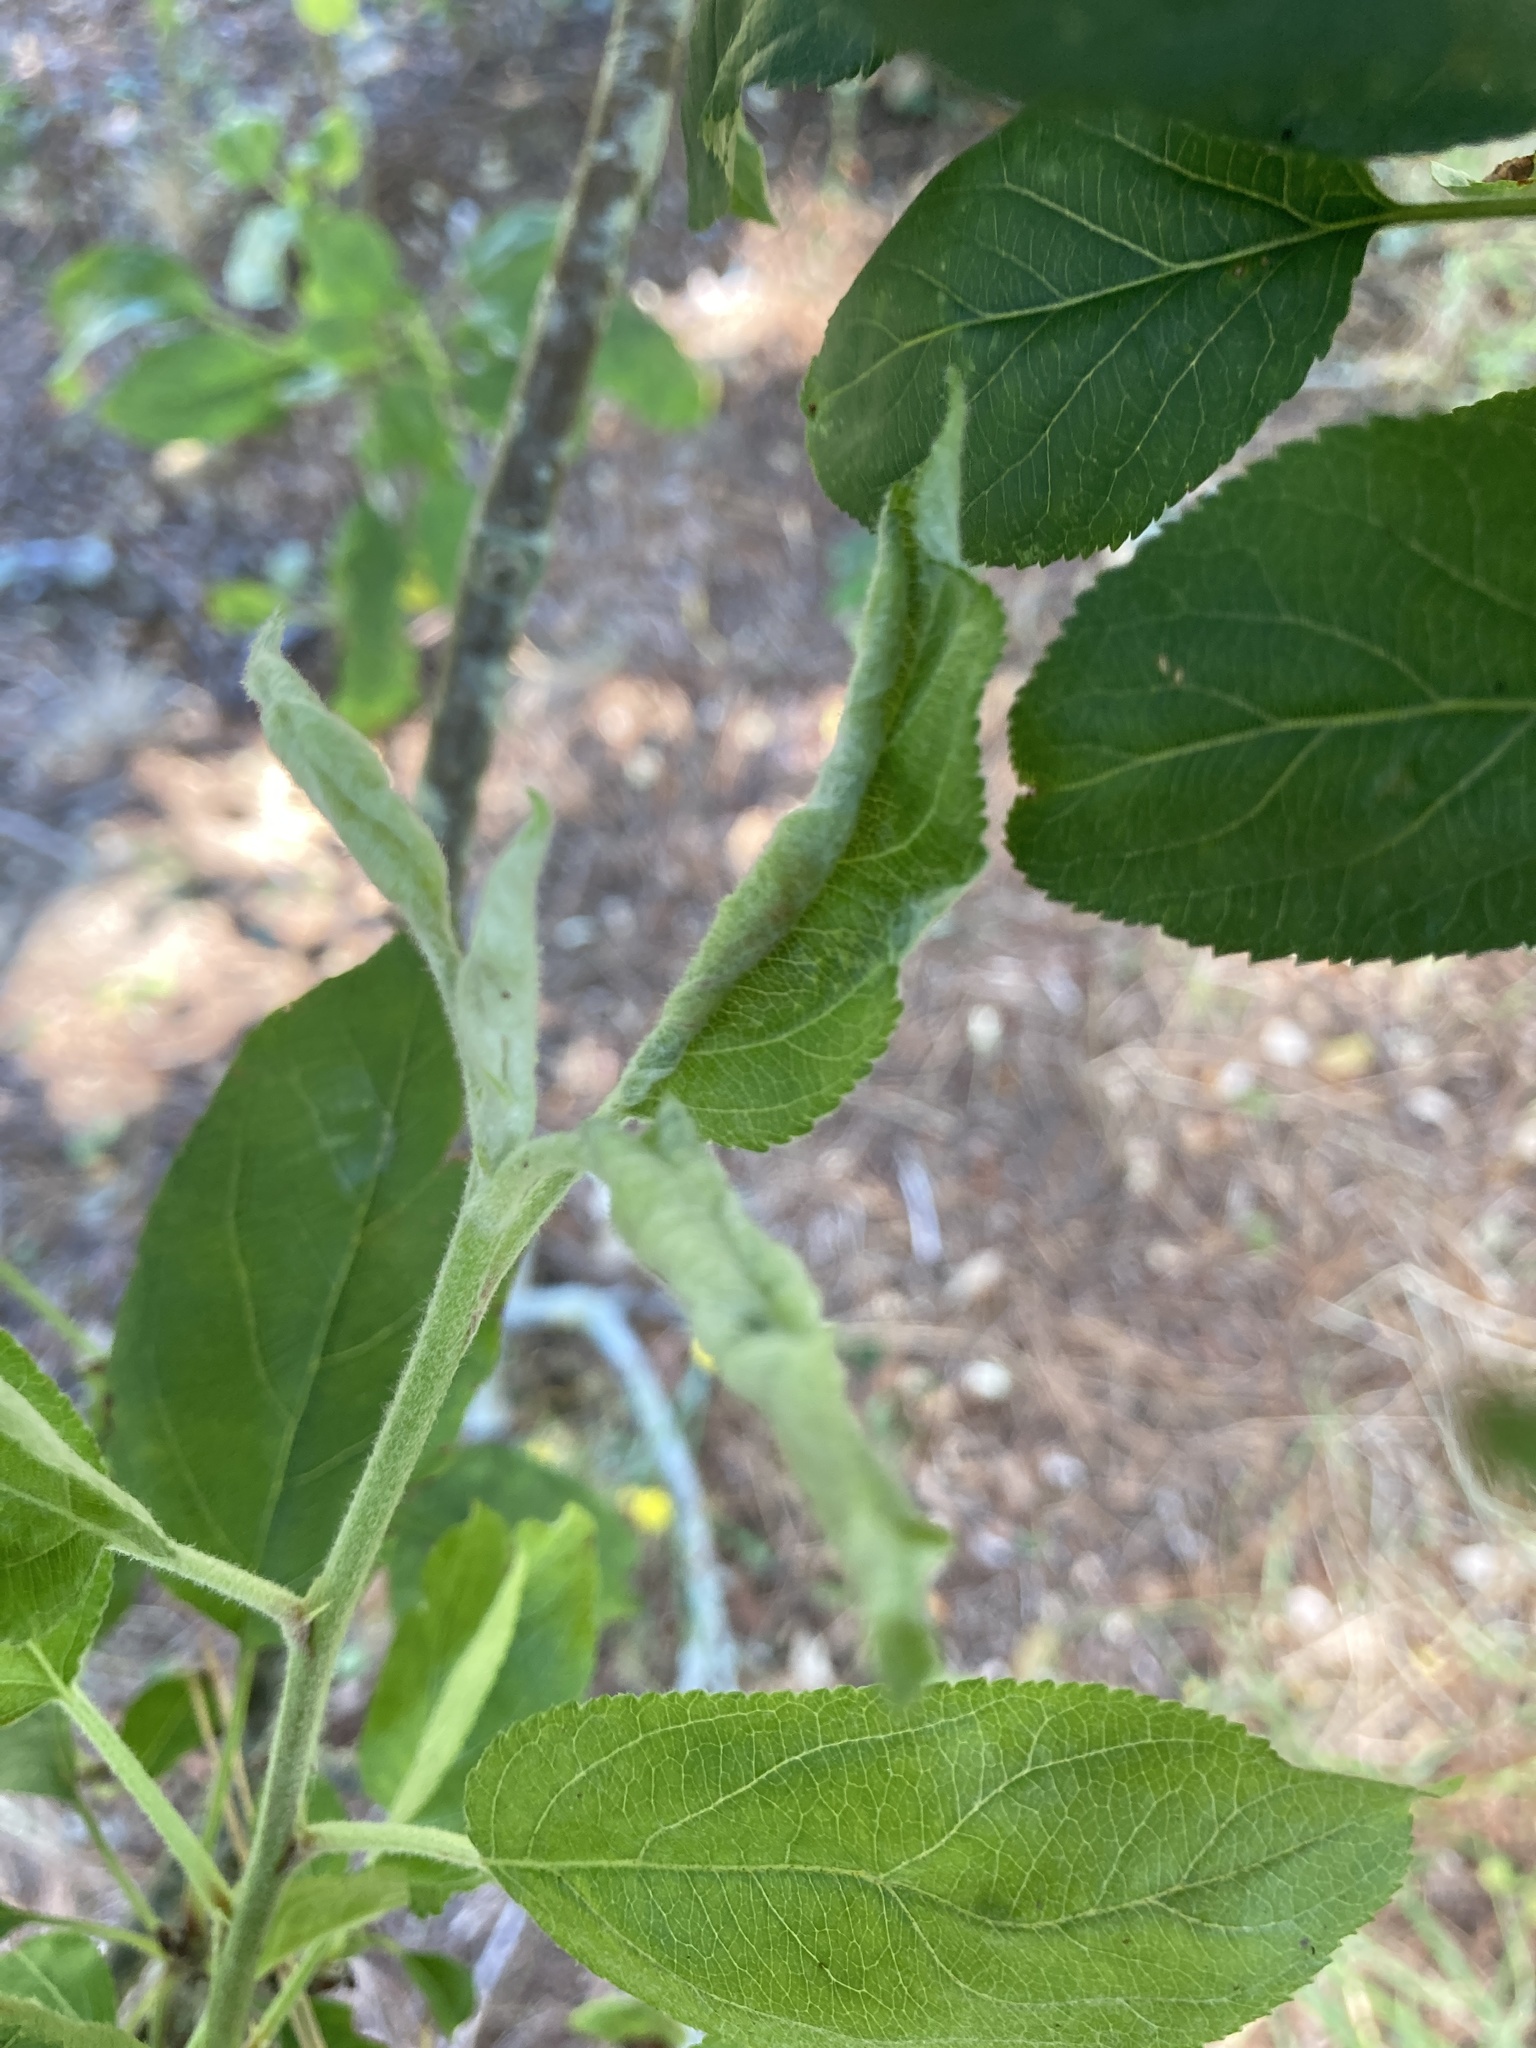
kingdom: Animalia
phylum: Arthropoda
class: Insecta
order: Diptera
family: Cecidomyiidae
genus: Dasineura
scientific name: Dasineura mali
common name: Apple leaf midge
